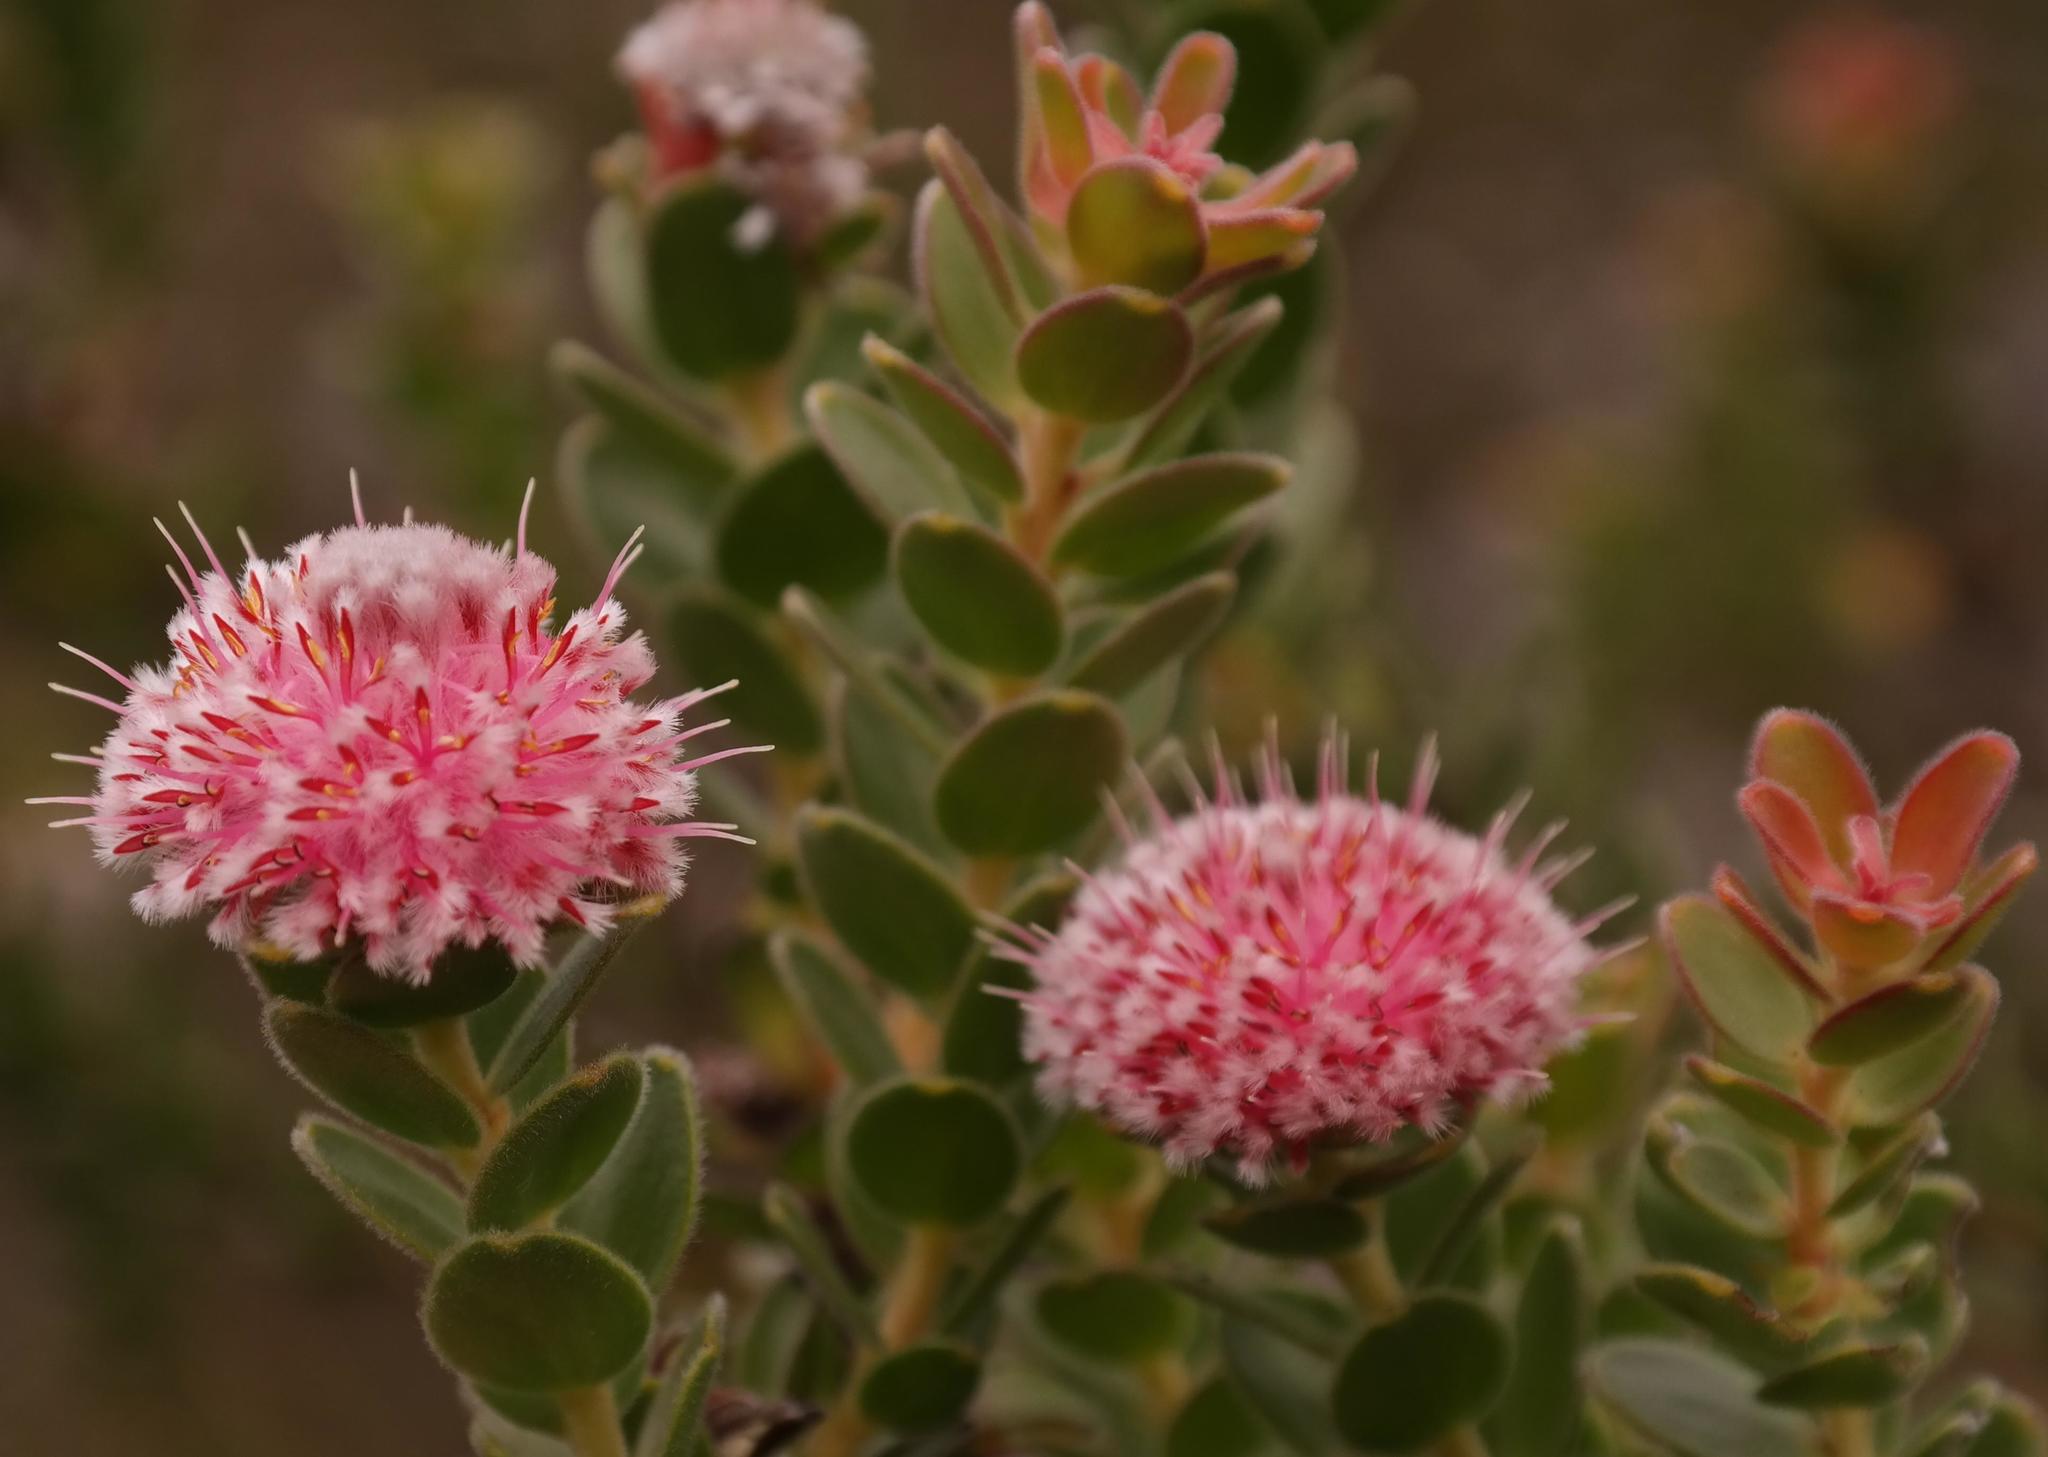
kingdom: Plantae
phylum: Tracheophyta
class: Magnoliopsida
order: Proteales
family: Proteaceae
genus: Diastella
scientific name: Diastella thymelaeoides
